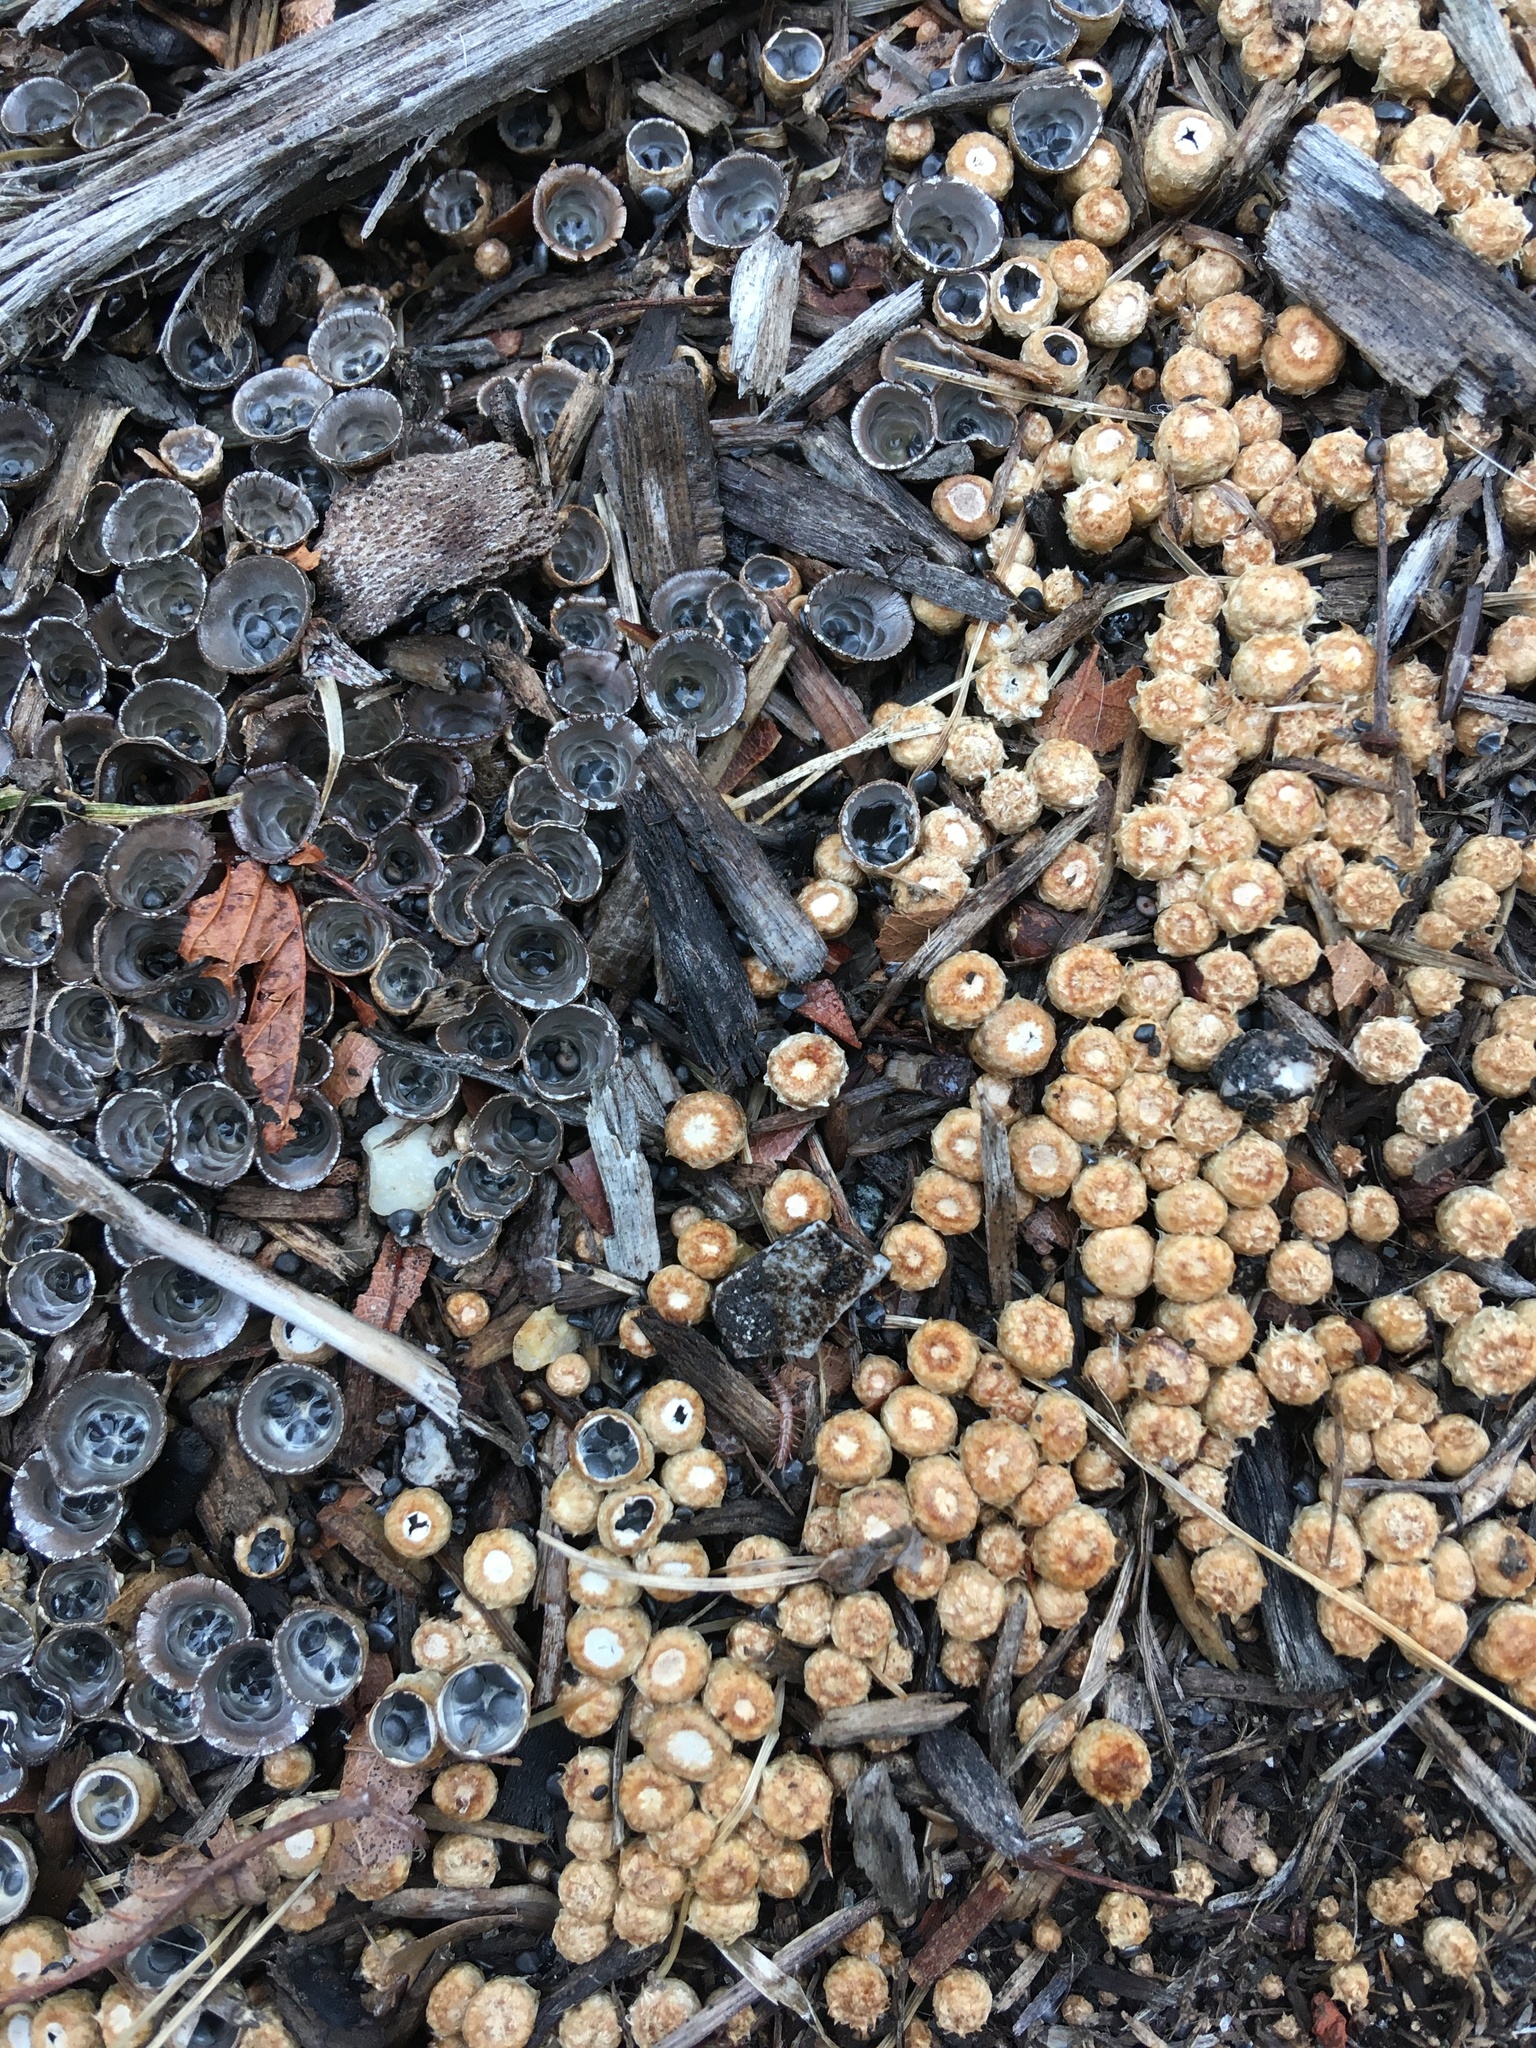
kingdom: Fungi
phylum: Basidiomycota
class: Agaricomycetes
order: Agaricales
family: Agaricaceae
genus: Cyathus
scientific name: Cyathus stercoreus
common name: Dung bird's nest
